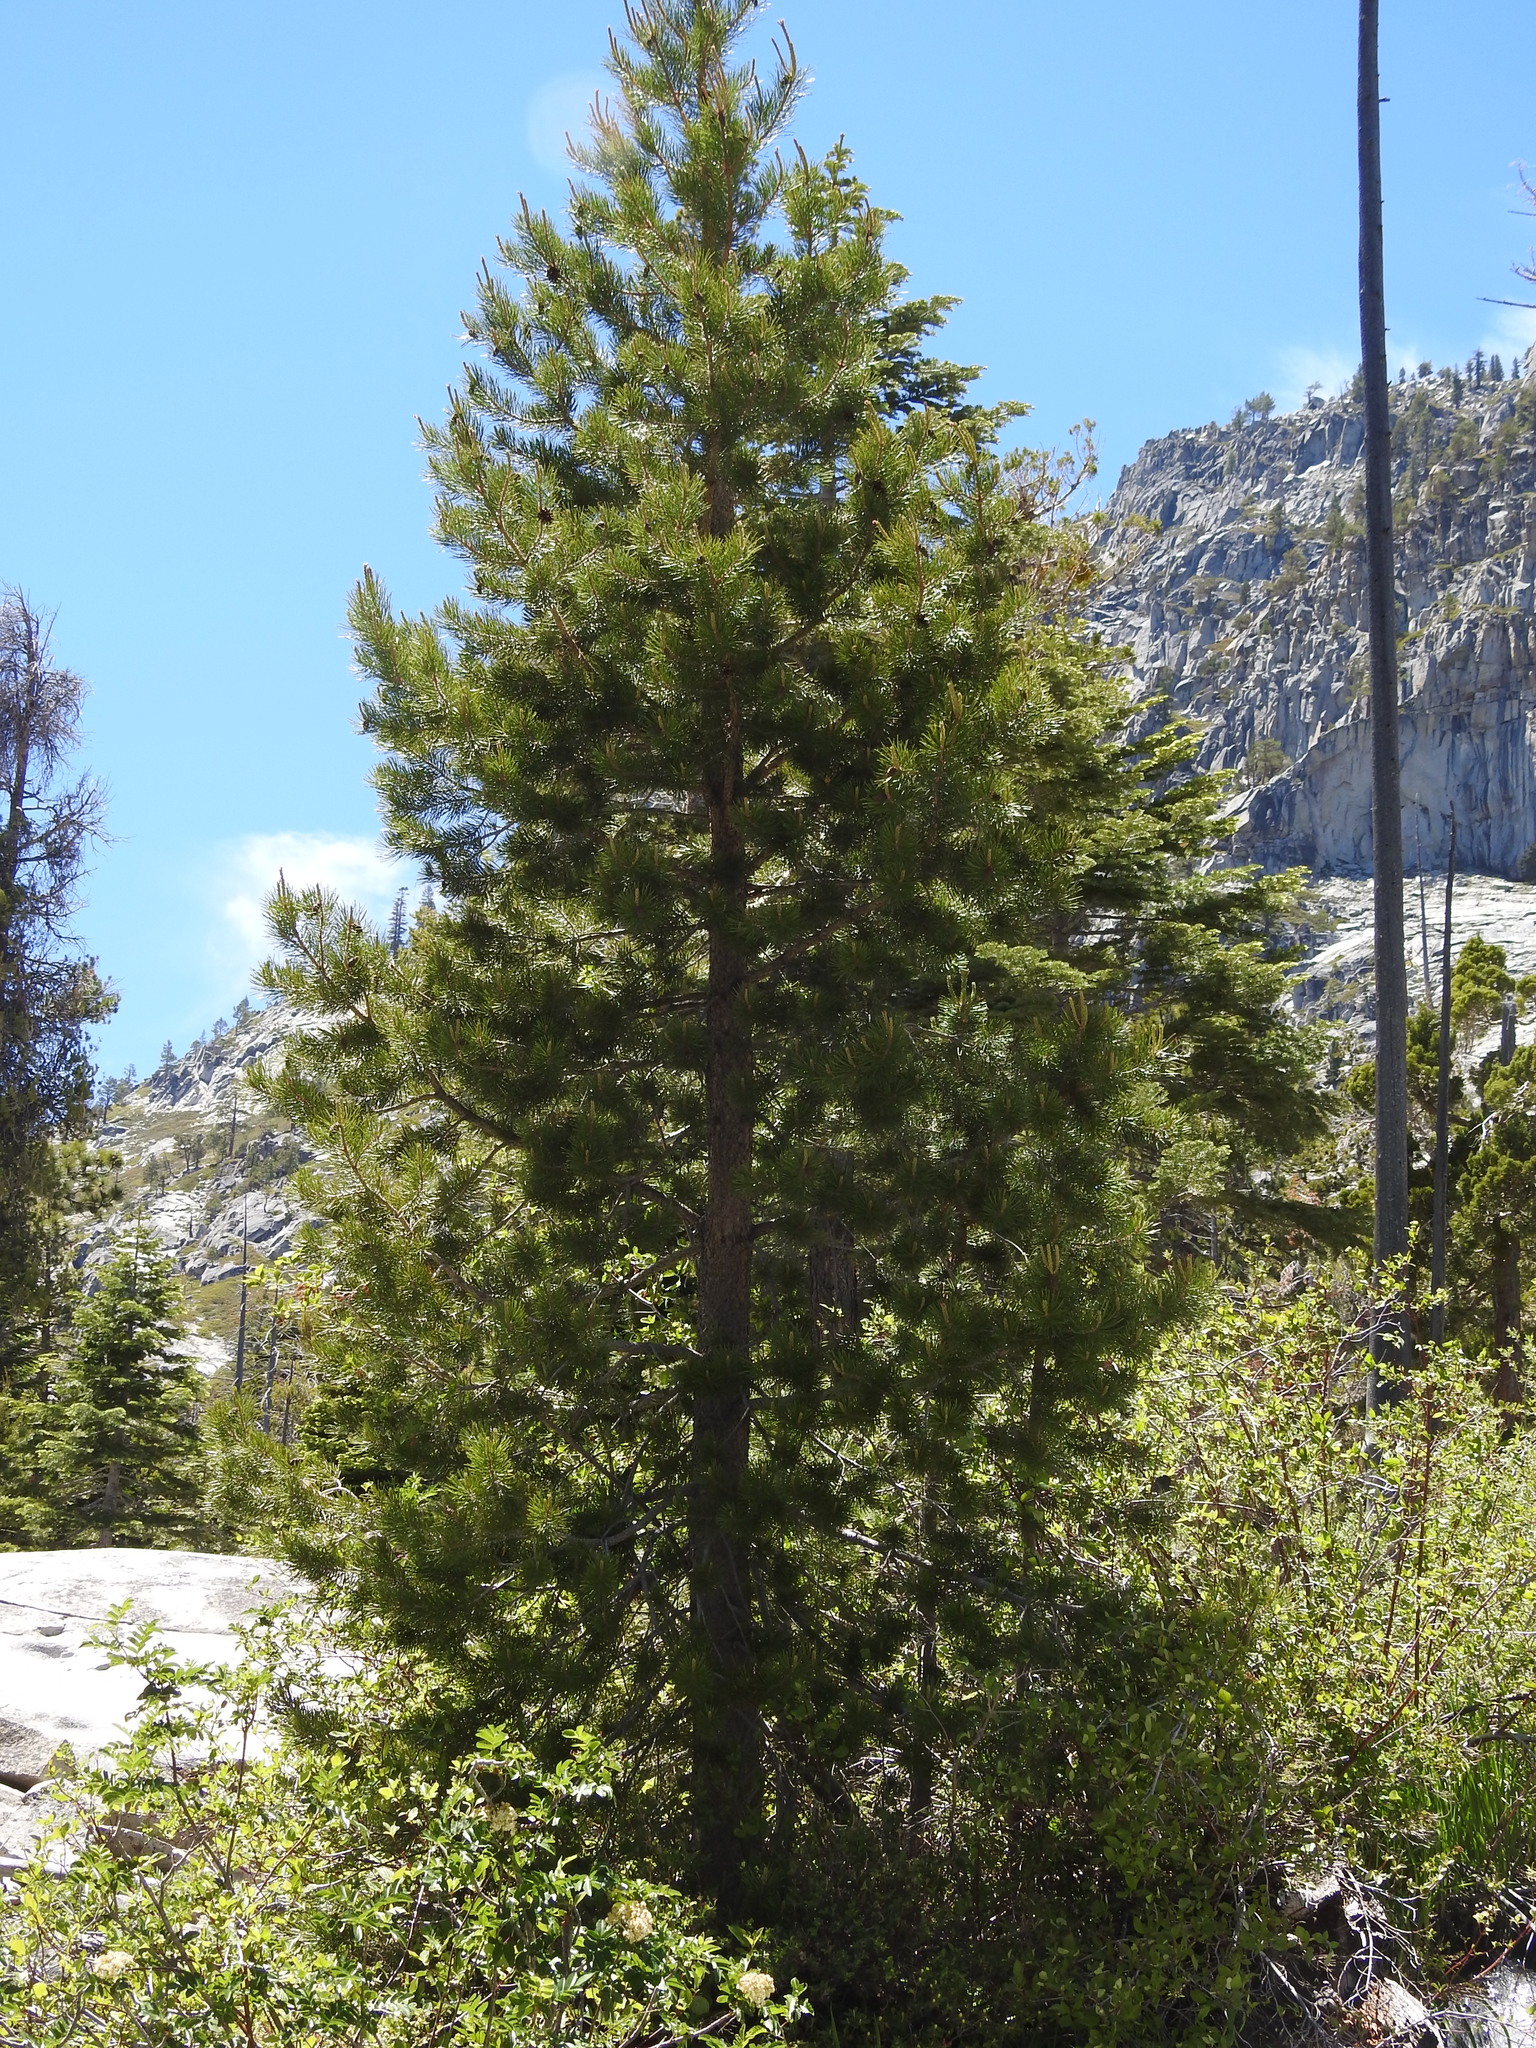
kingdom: Plantae
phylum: Tracheophyta
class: Pinopsida
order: Pinales
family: Pinaceae
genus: Pinus
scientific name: Pinus contorta
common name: Lodgepole pine
